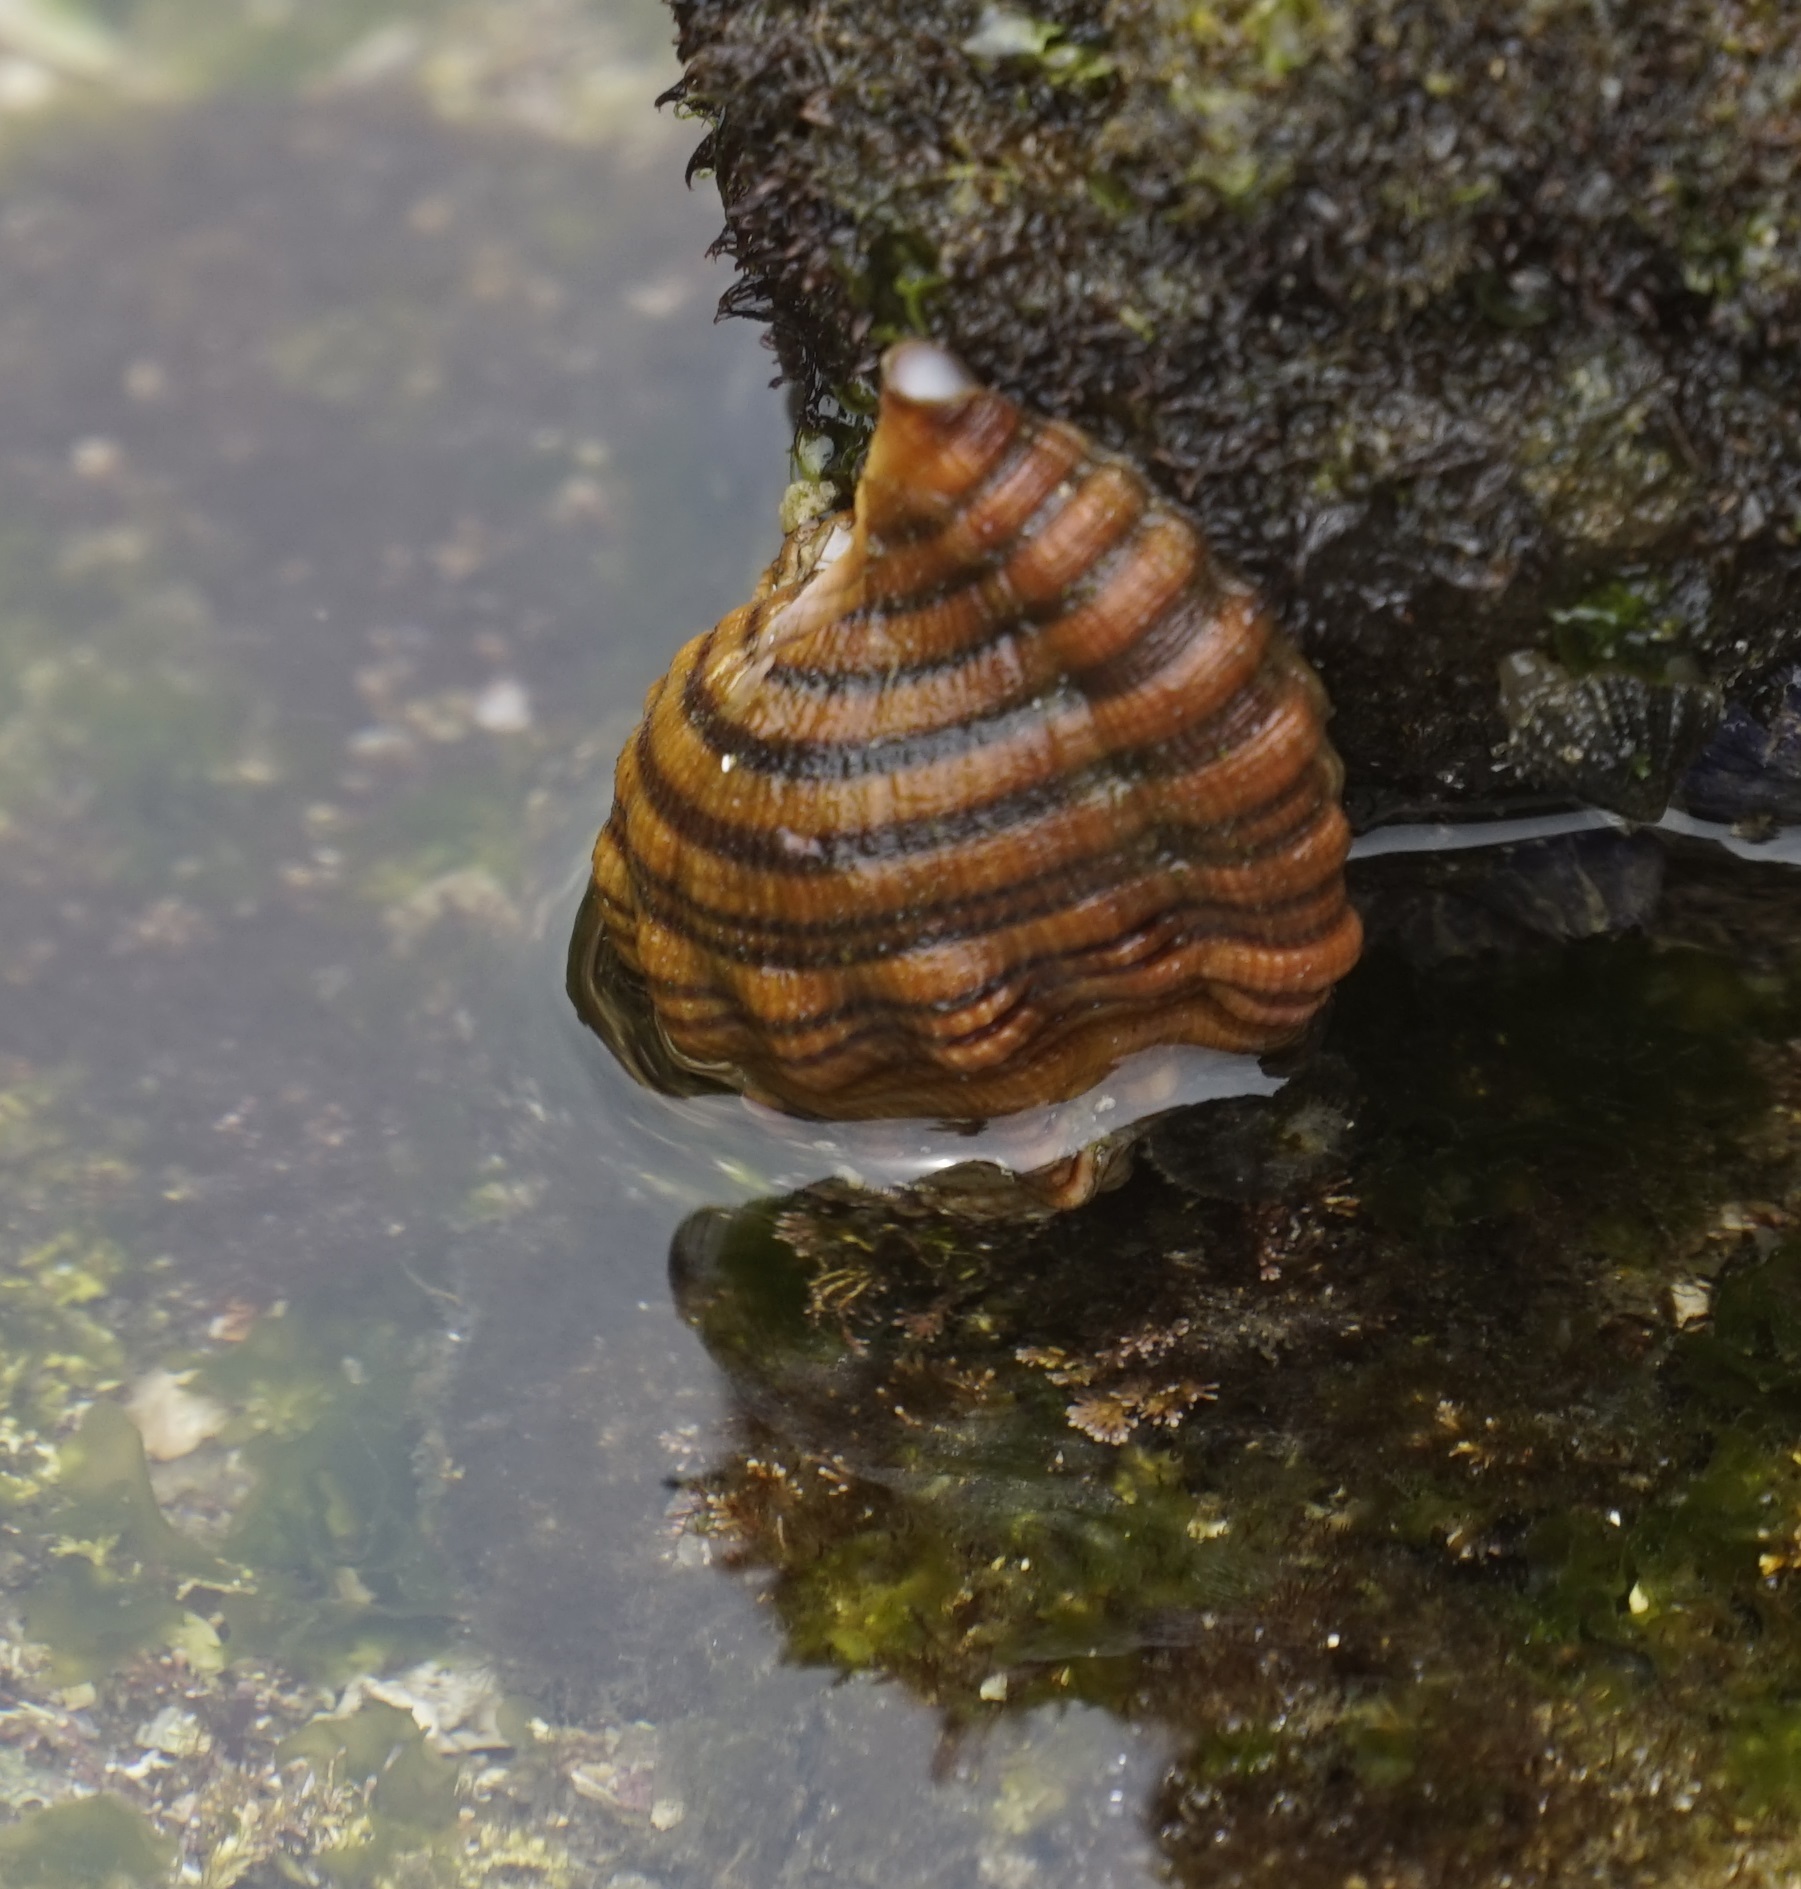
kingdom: Animalia
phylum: Mollusca
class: Gastropoda
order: Littorinimorpha
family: Cymatiidae
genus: Cabestana
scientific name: Cabestana spengleri
